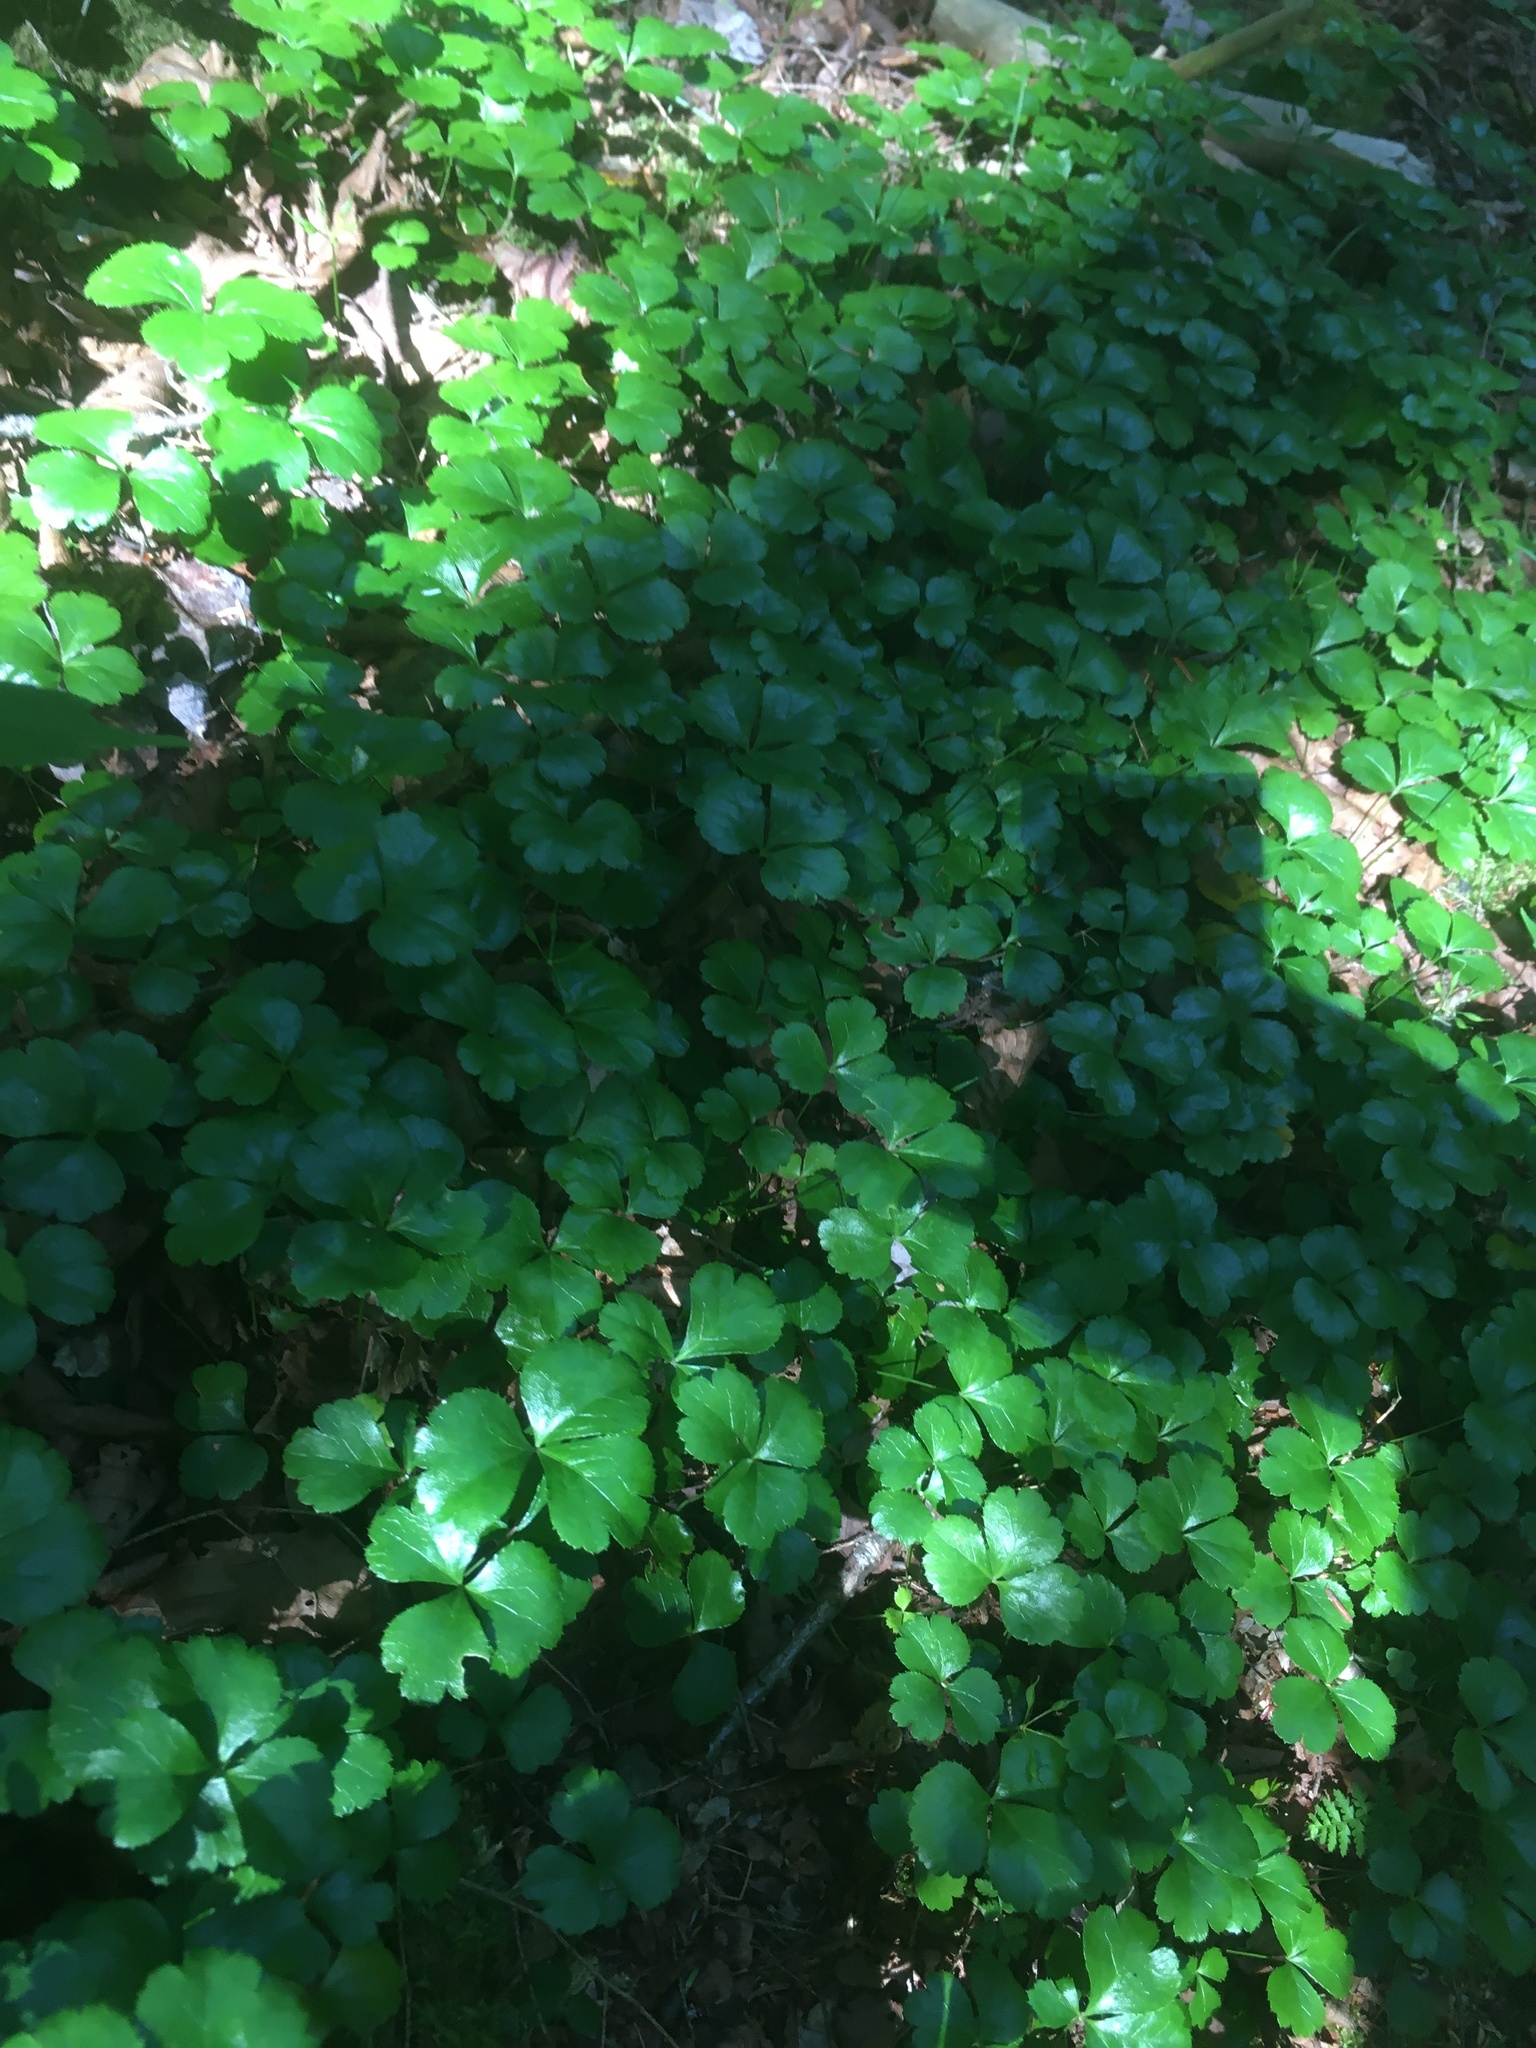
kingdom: Plantae
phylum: Tracheophyta
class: Magnoliopsida
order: Ranunculales
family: Ranunculaceae
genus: Coptis
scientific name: Coptis trifolia
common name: Canker-root
